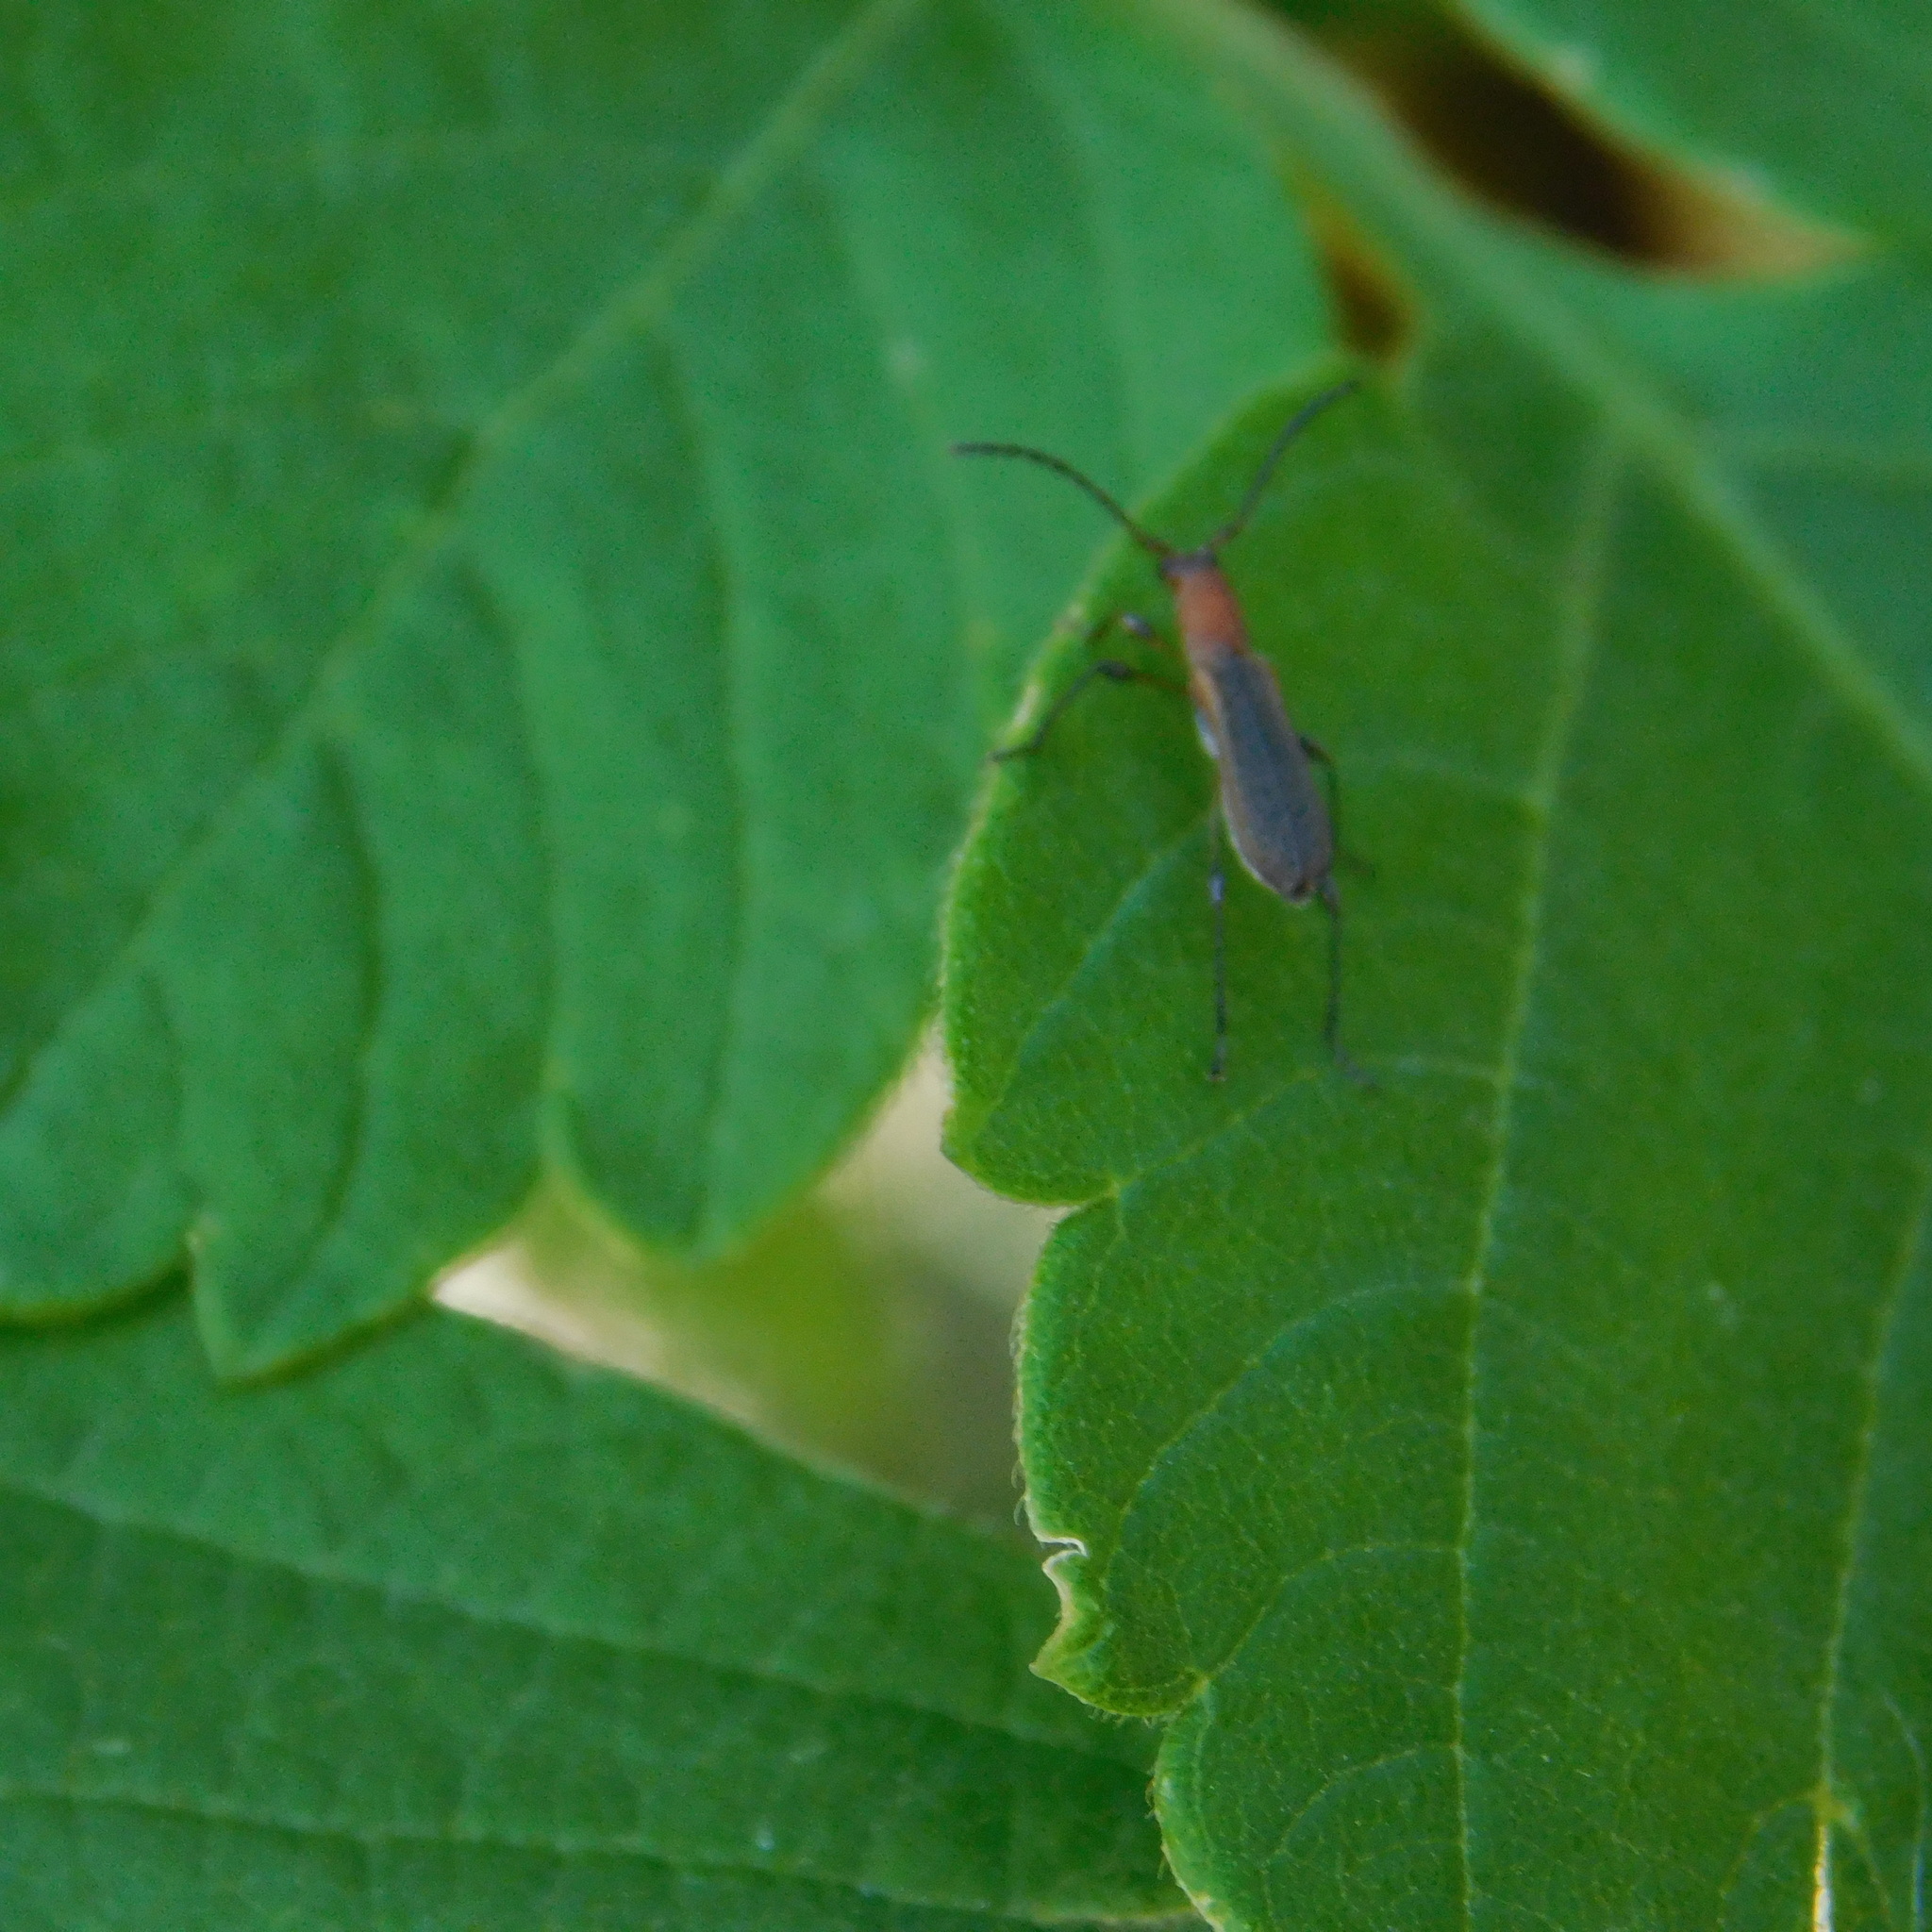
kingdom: Animalia
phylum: Arthropoda
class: Insecta
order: Coleoptera
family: Cerambycidae
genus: Dihammaphora
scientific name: Dihammaphora aepytus
